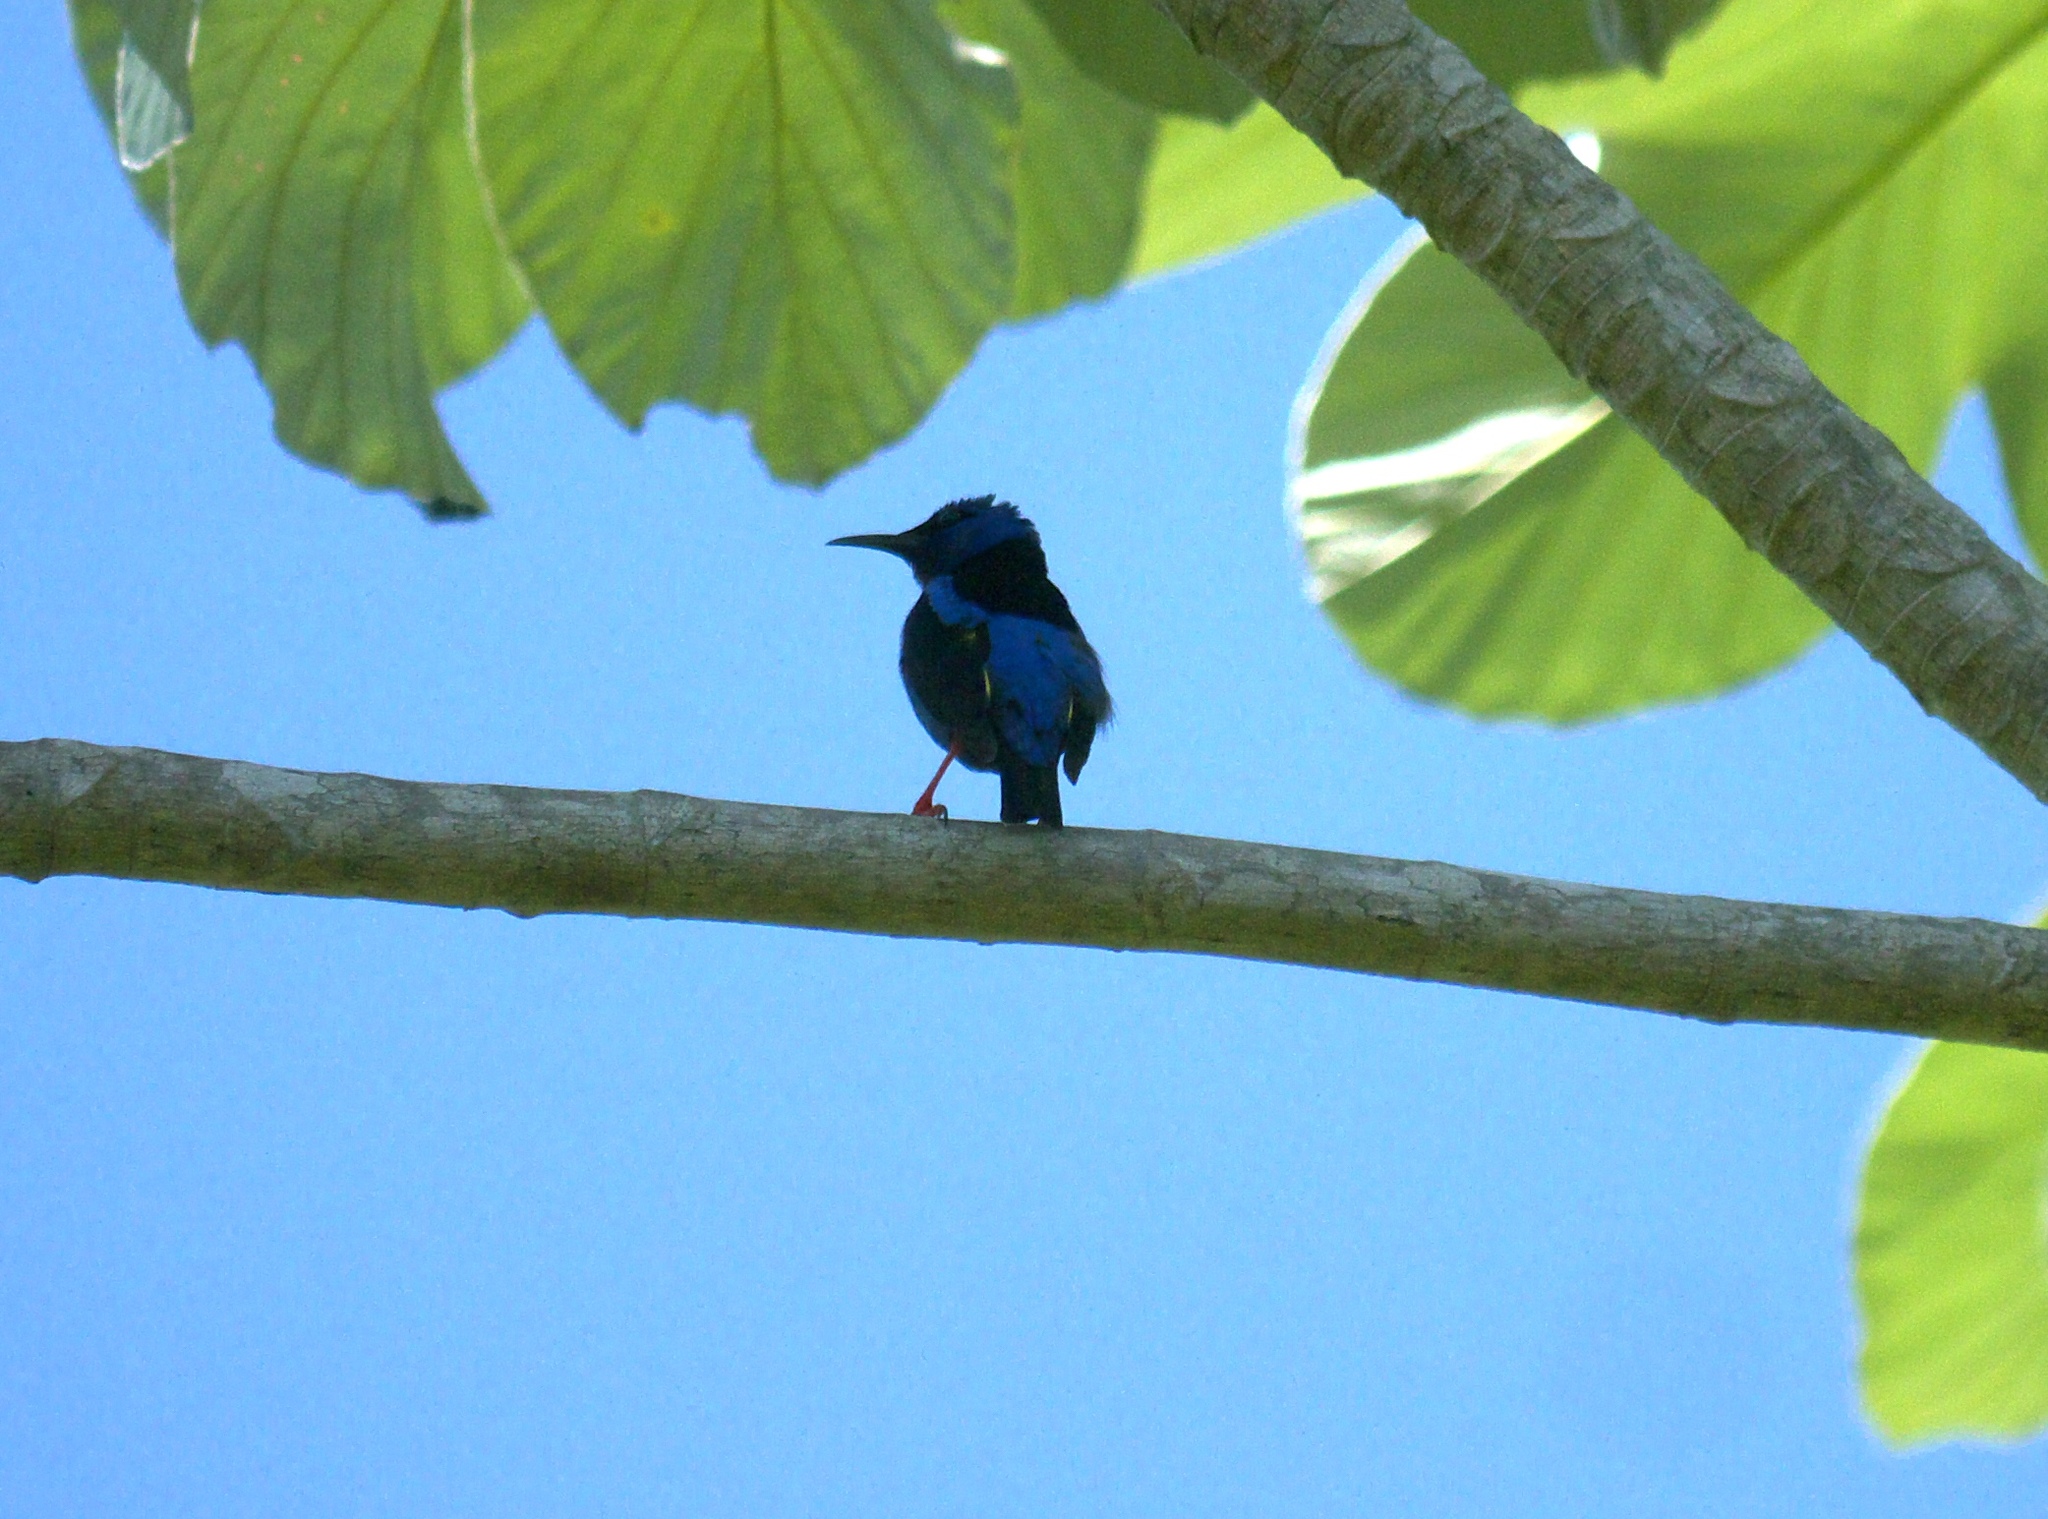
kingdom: Animalia
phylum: Chordata
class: Aves
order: Passeriformes
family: Thraupidae
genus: Cyanerpes
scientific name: Cyanerpes cyaneus
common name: Red-legged honeycreeper
